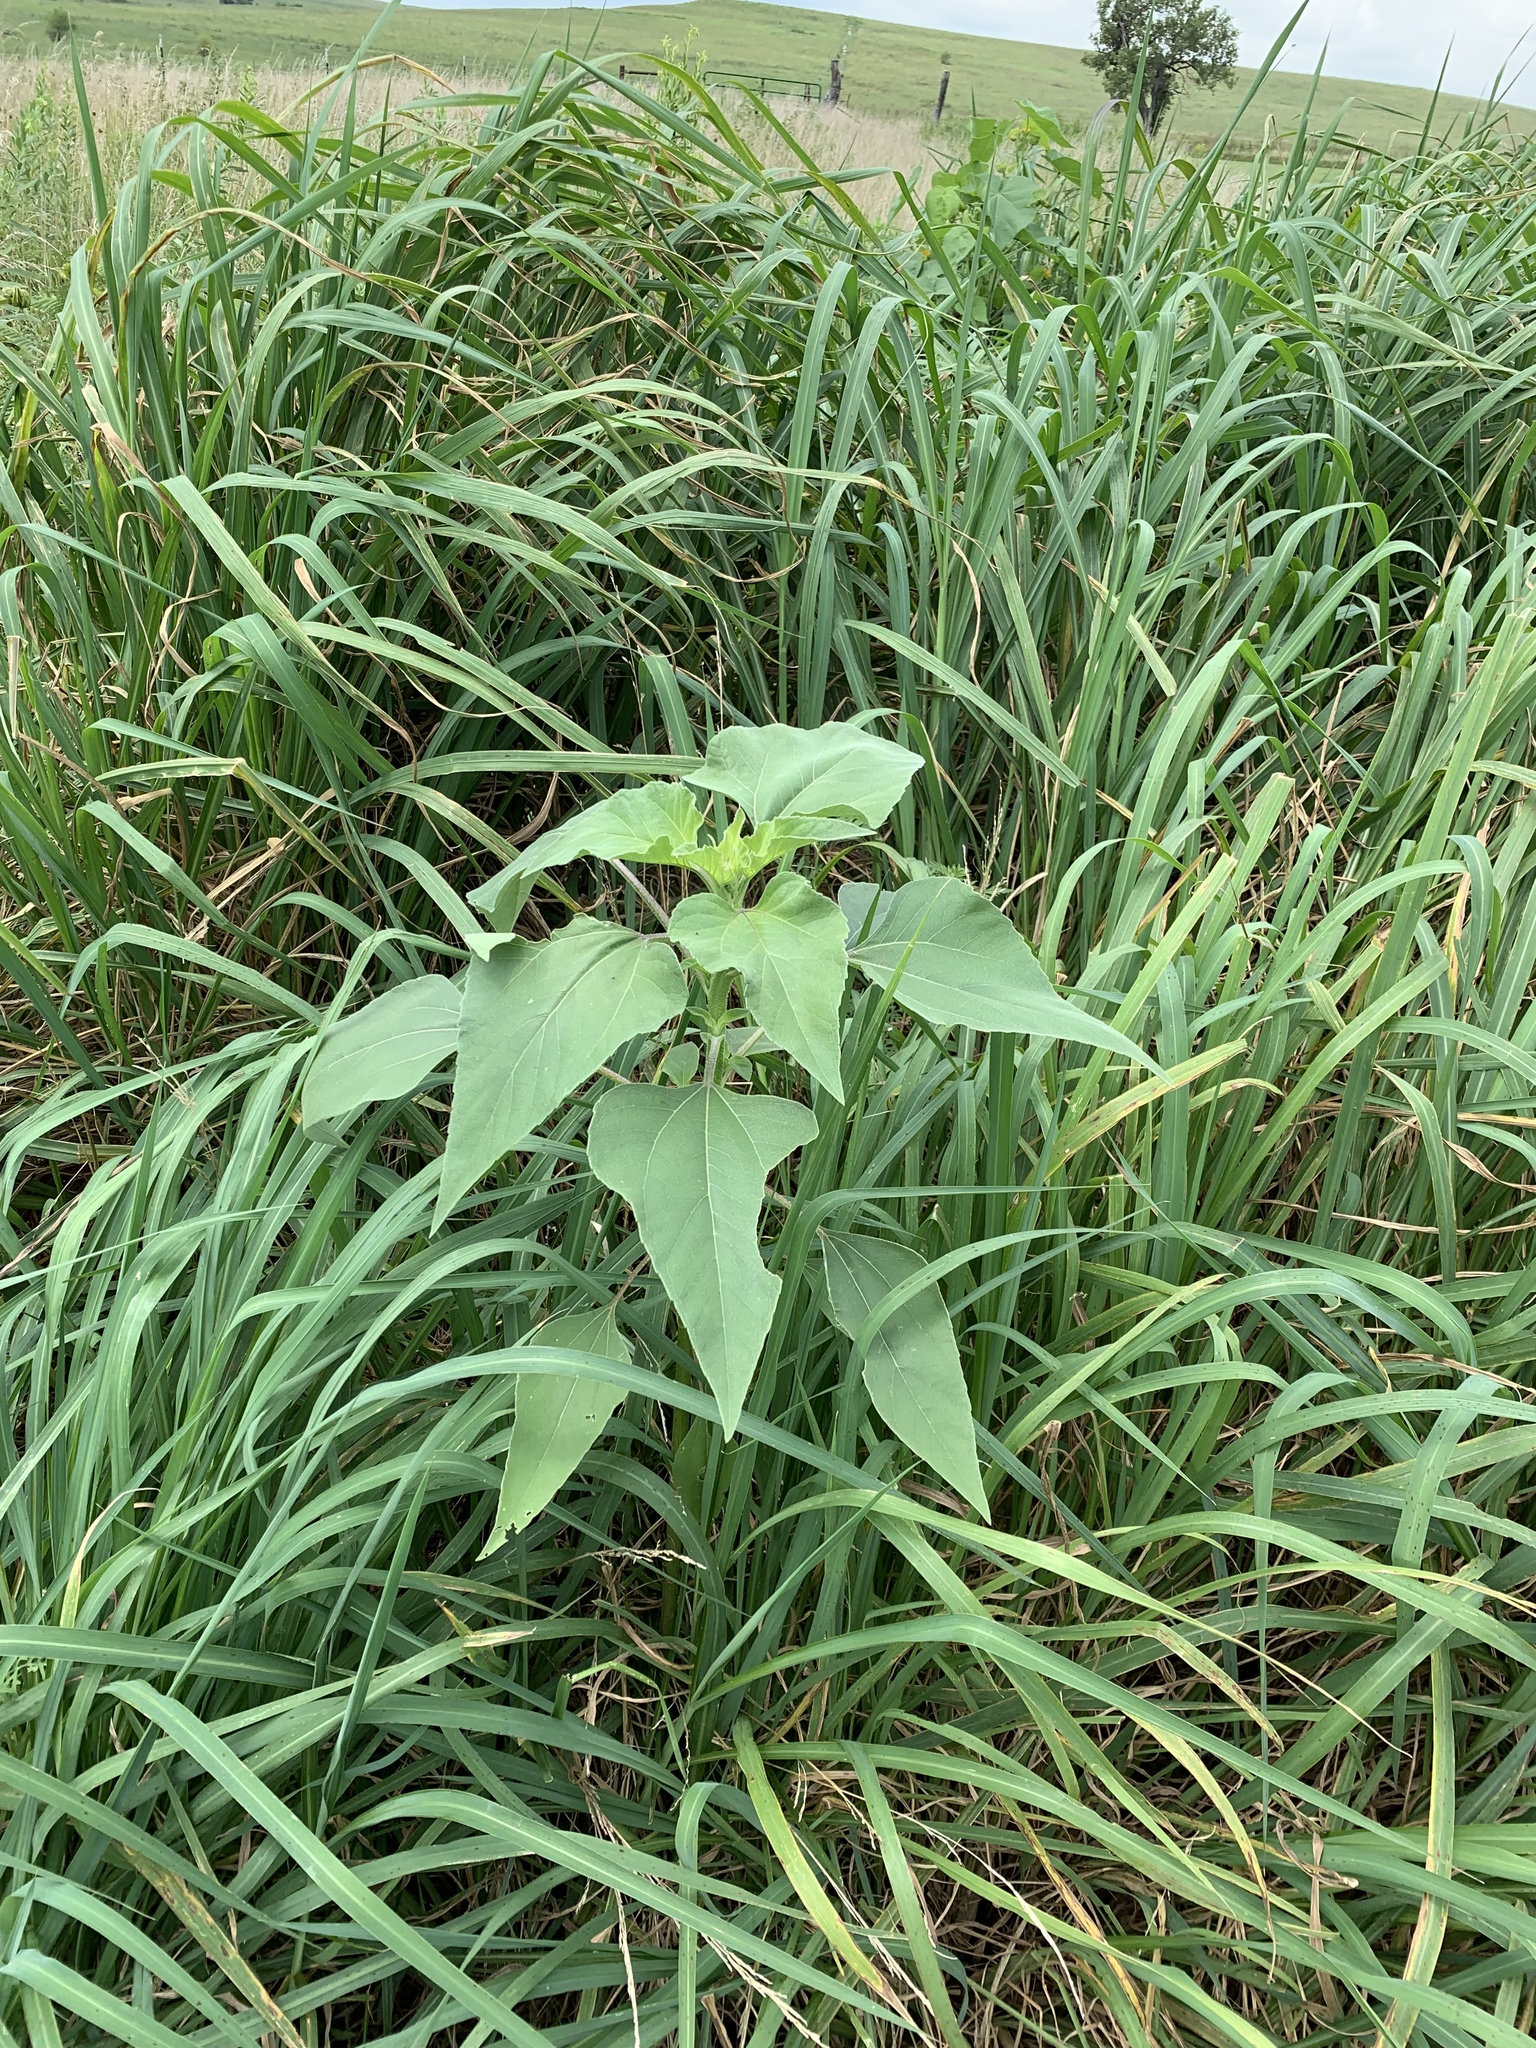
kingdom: Plantae
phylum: Tracheophyta
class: Magnoliopsida
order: Asterales
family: Asteraceae
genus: Helianthus
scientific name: Helianthus annuus
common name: Sunflower
